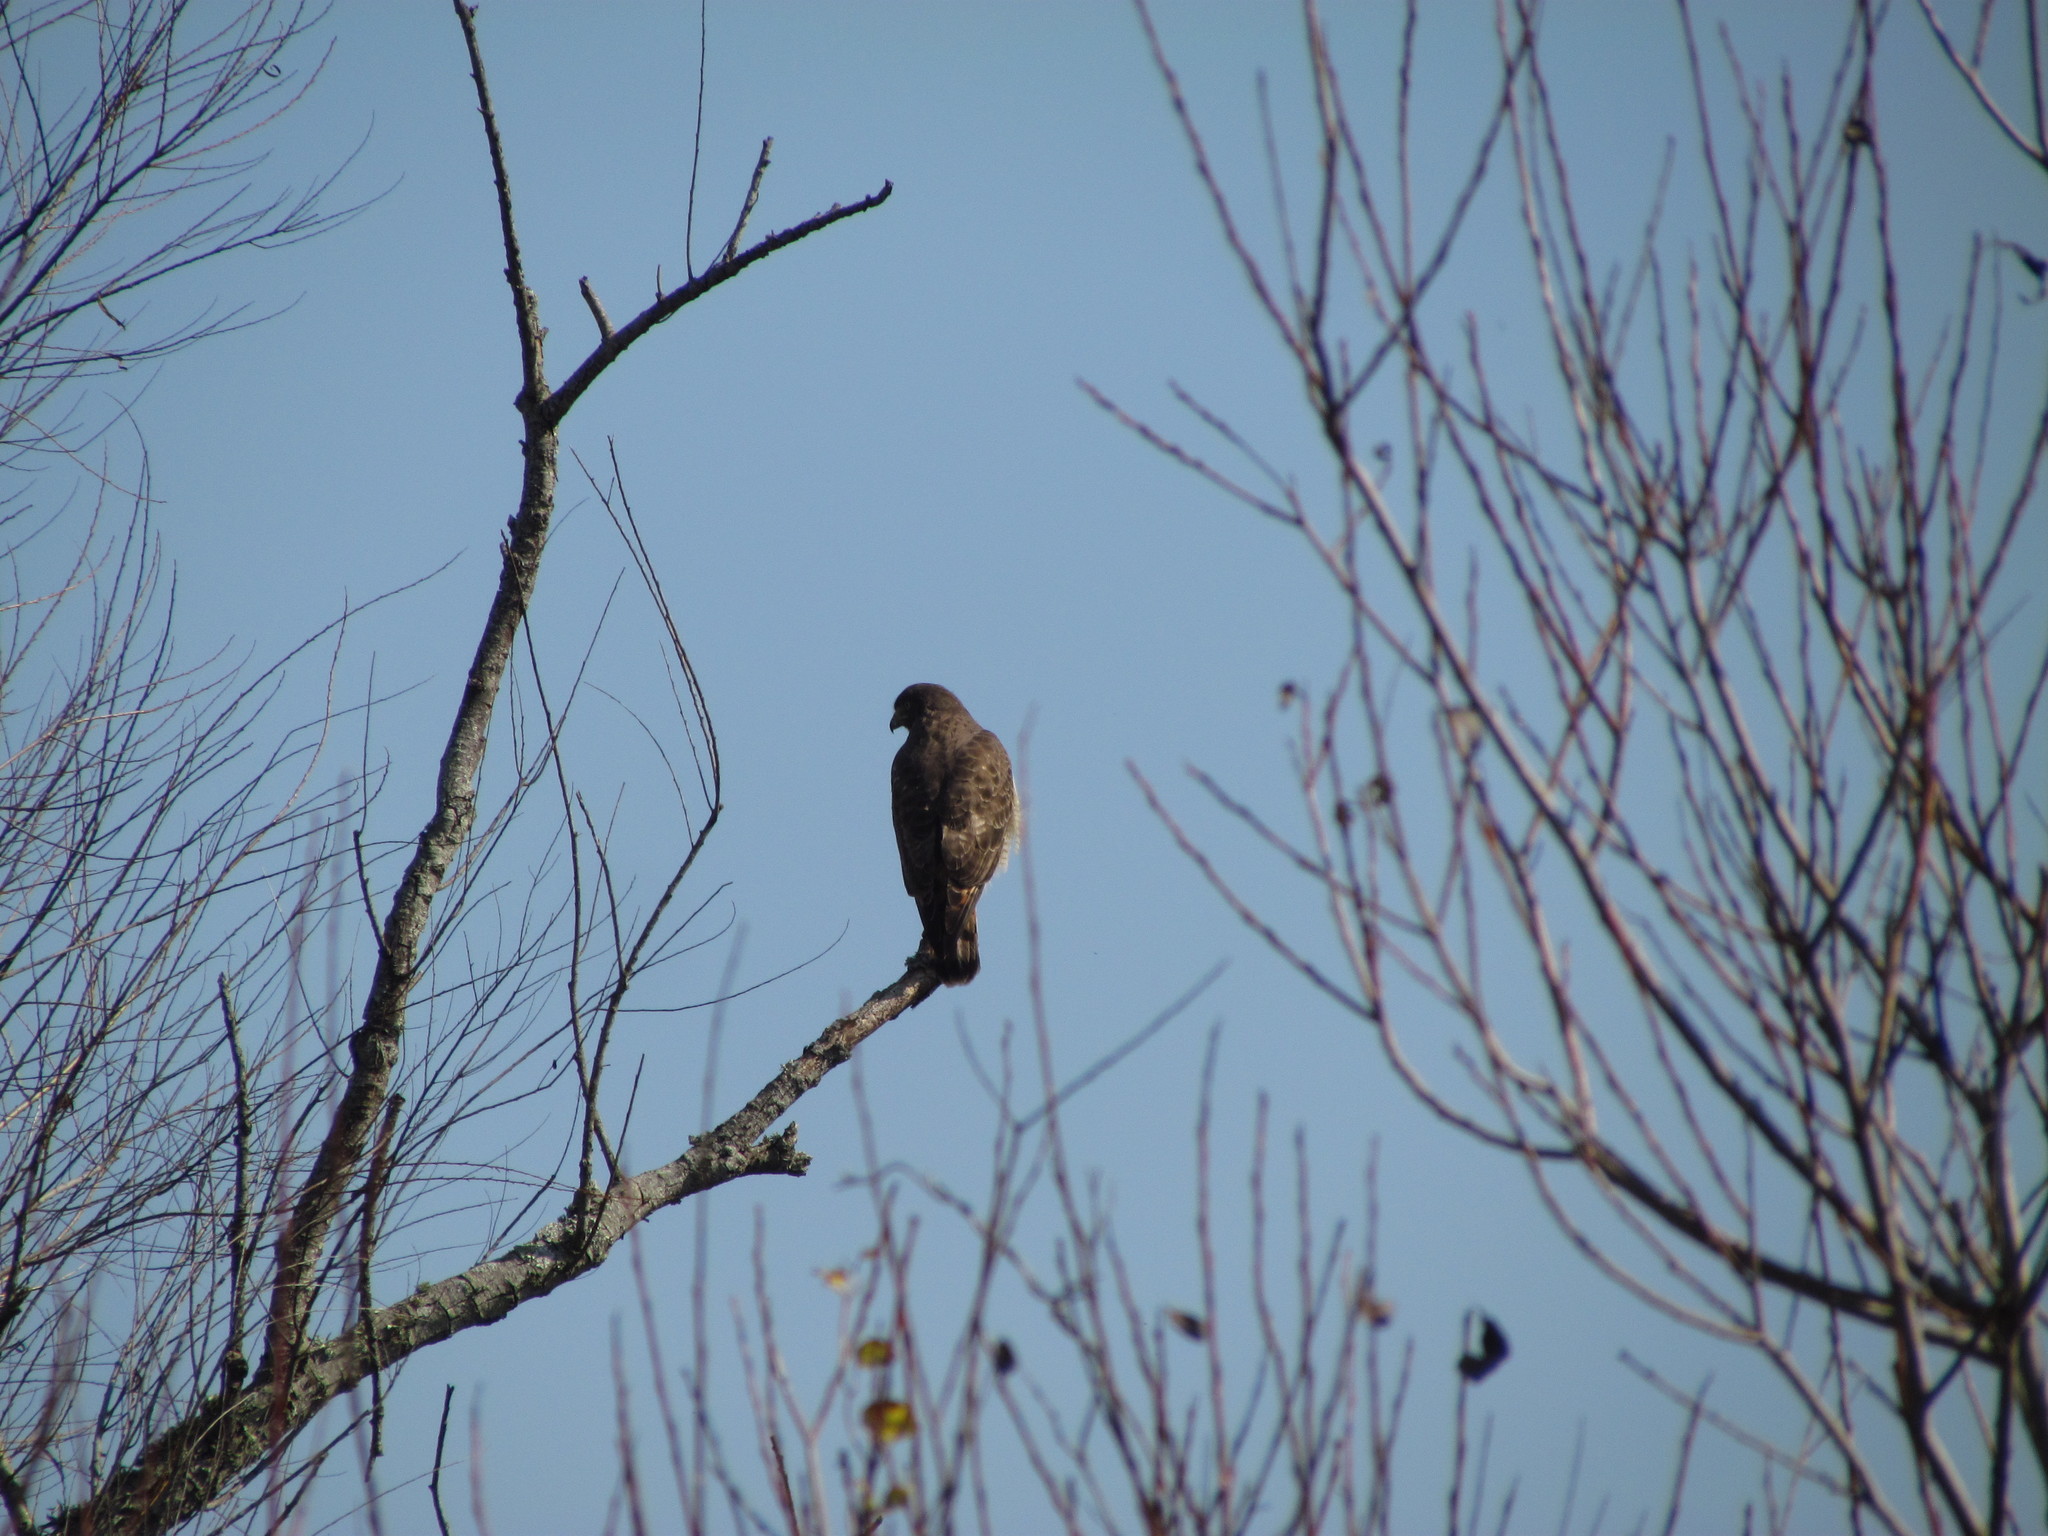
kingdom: Animalia
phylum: Chordata
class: Aves
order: Accipitriformes
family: Accipitridae
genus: Rupornis
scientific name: Rupornis magnirostris
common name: Roadside hawk
